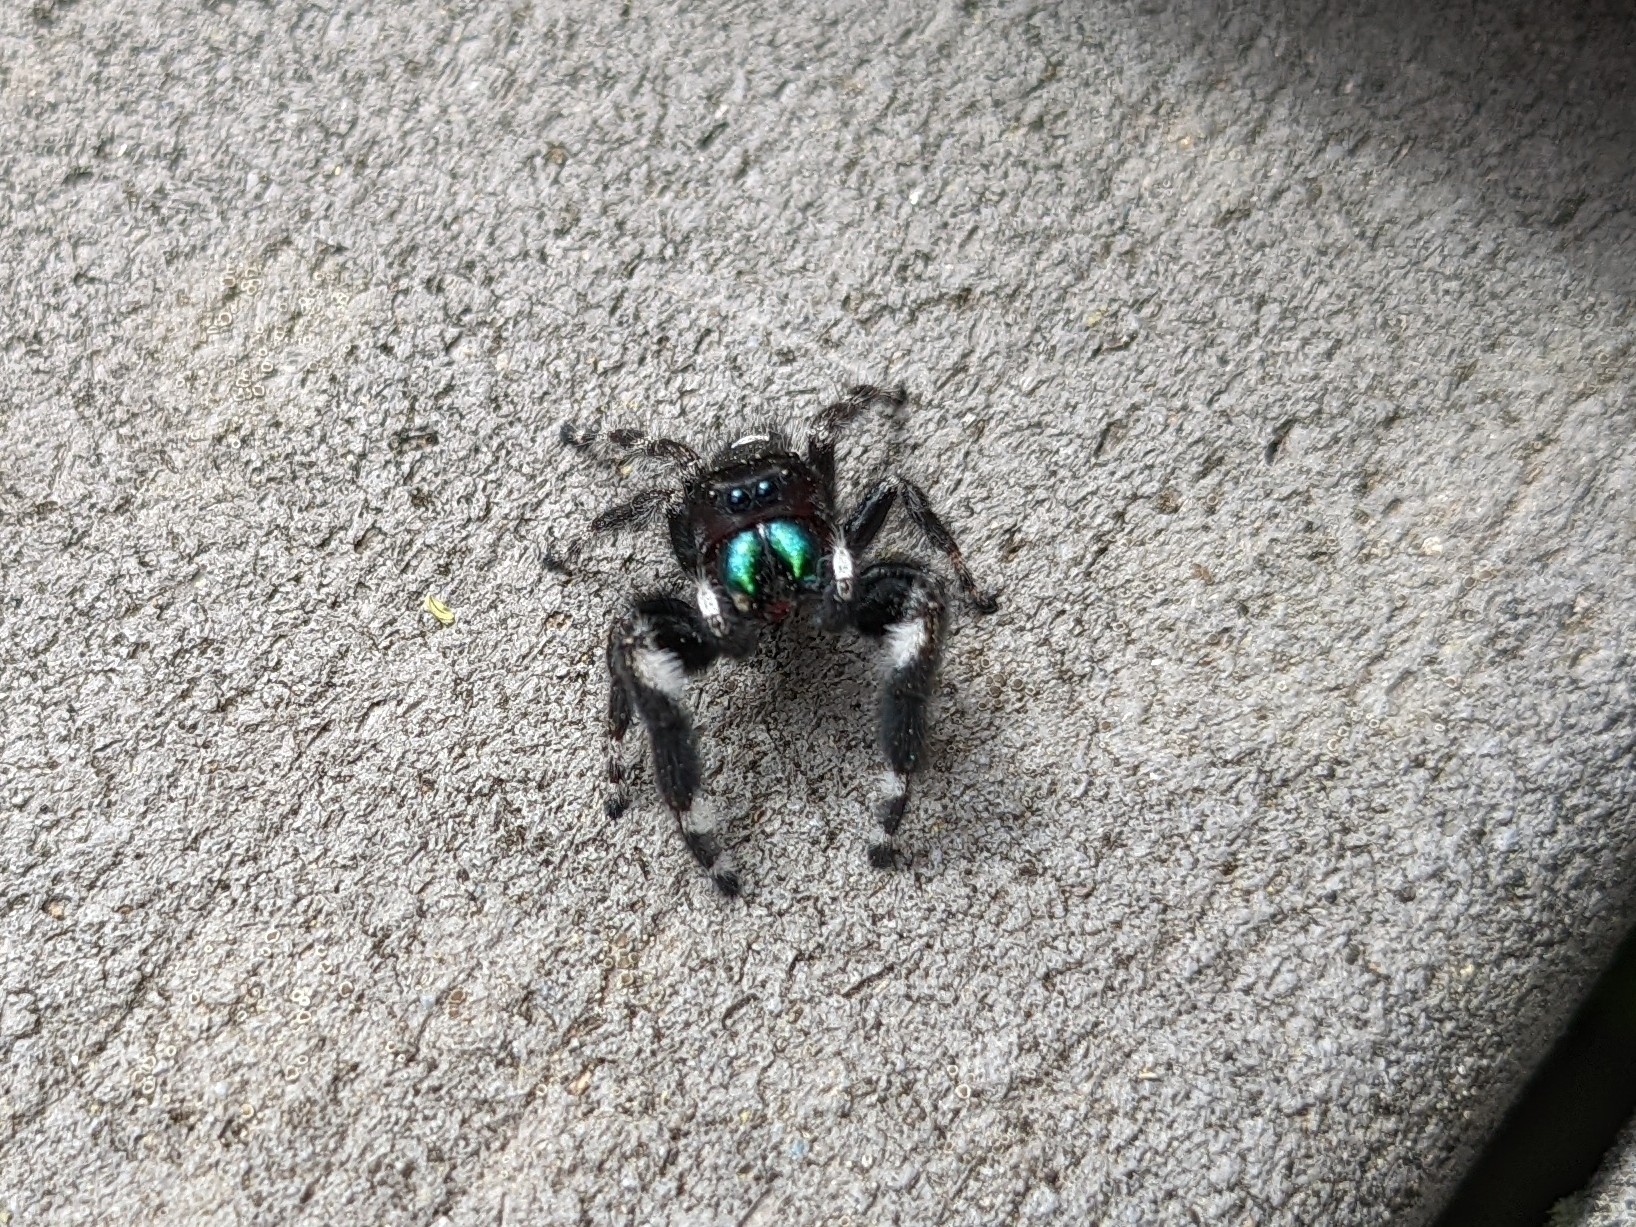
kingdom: Animalia
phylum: Arthropoda
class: Arachnida
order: Araneae
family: Salticidae
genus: Phidippus
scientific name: Phidippus audax
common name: Bold jumper
